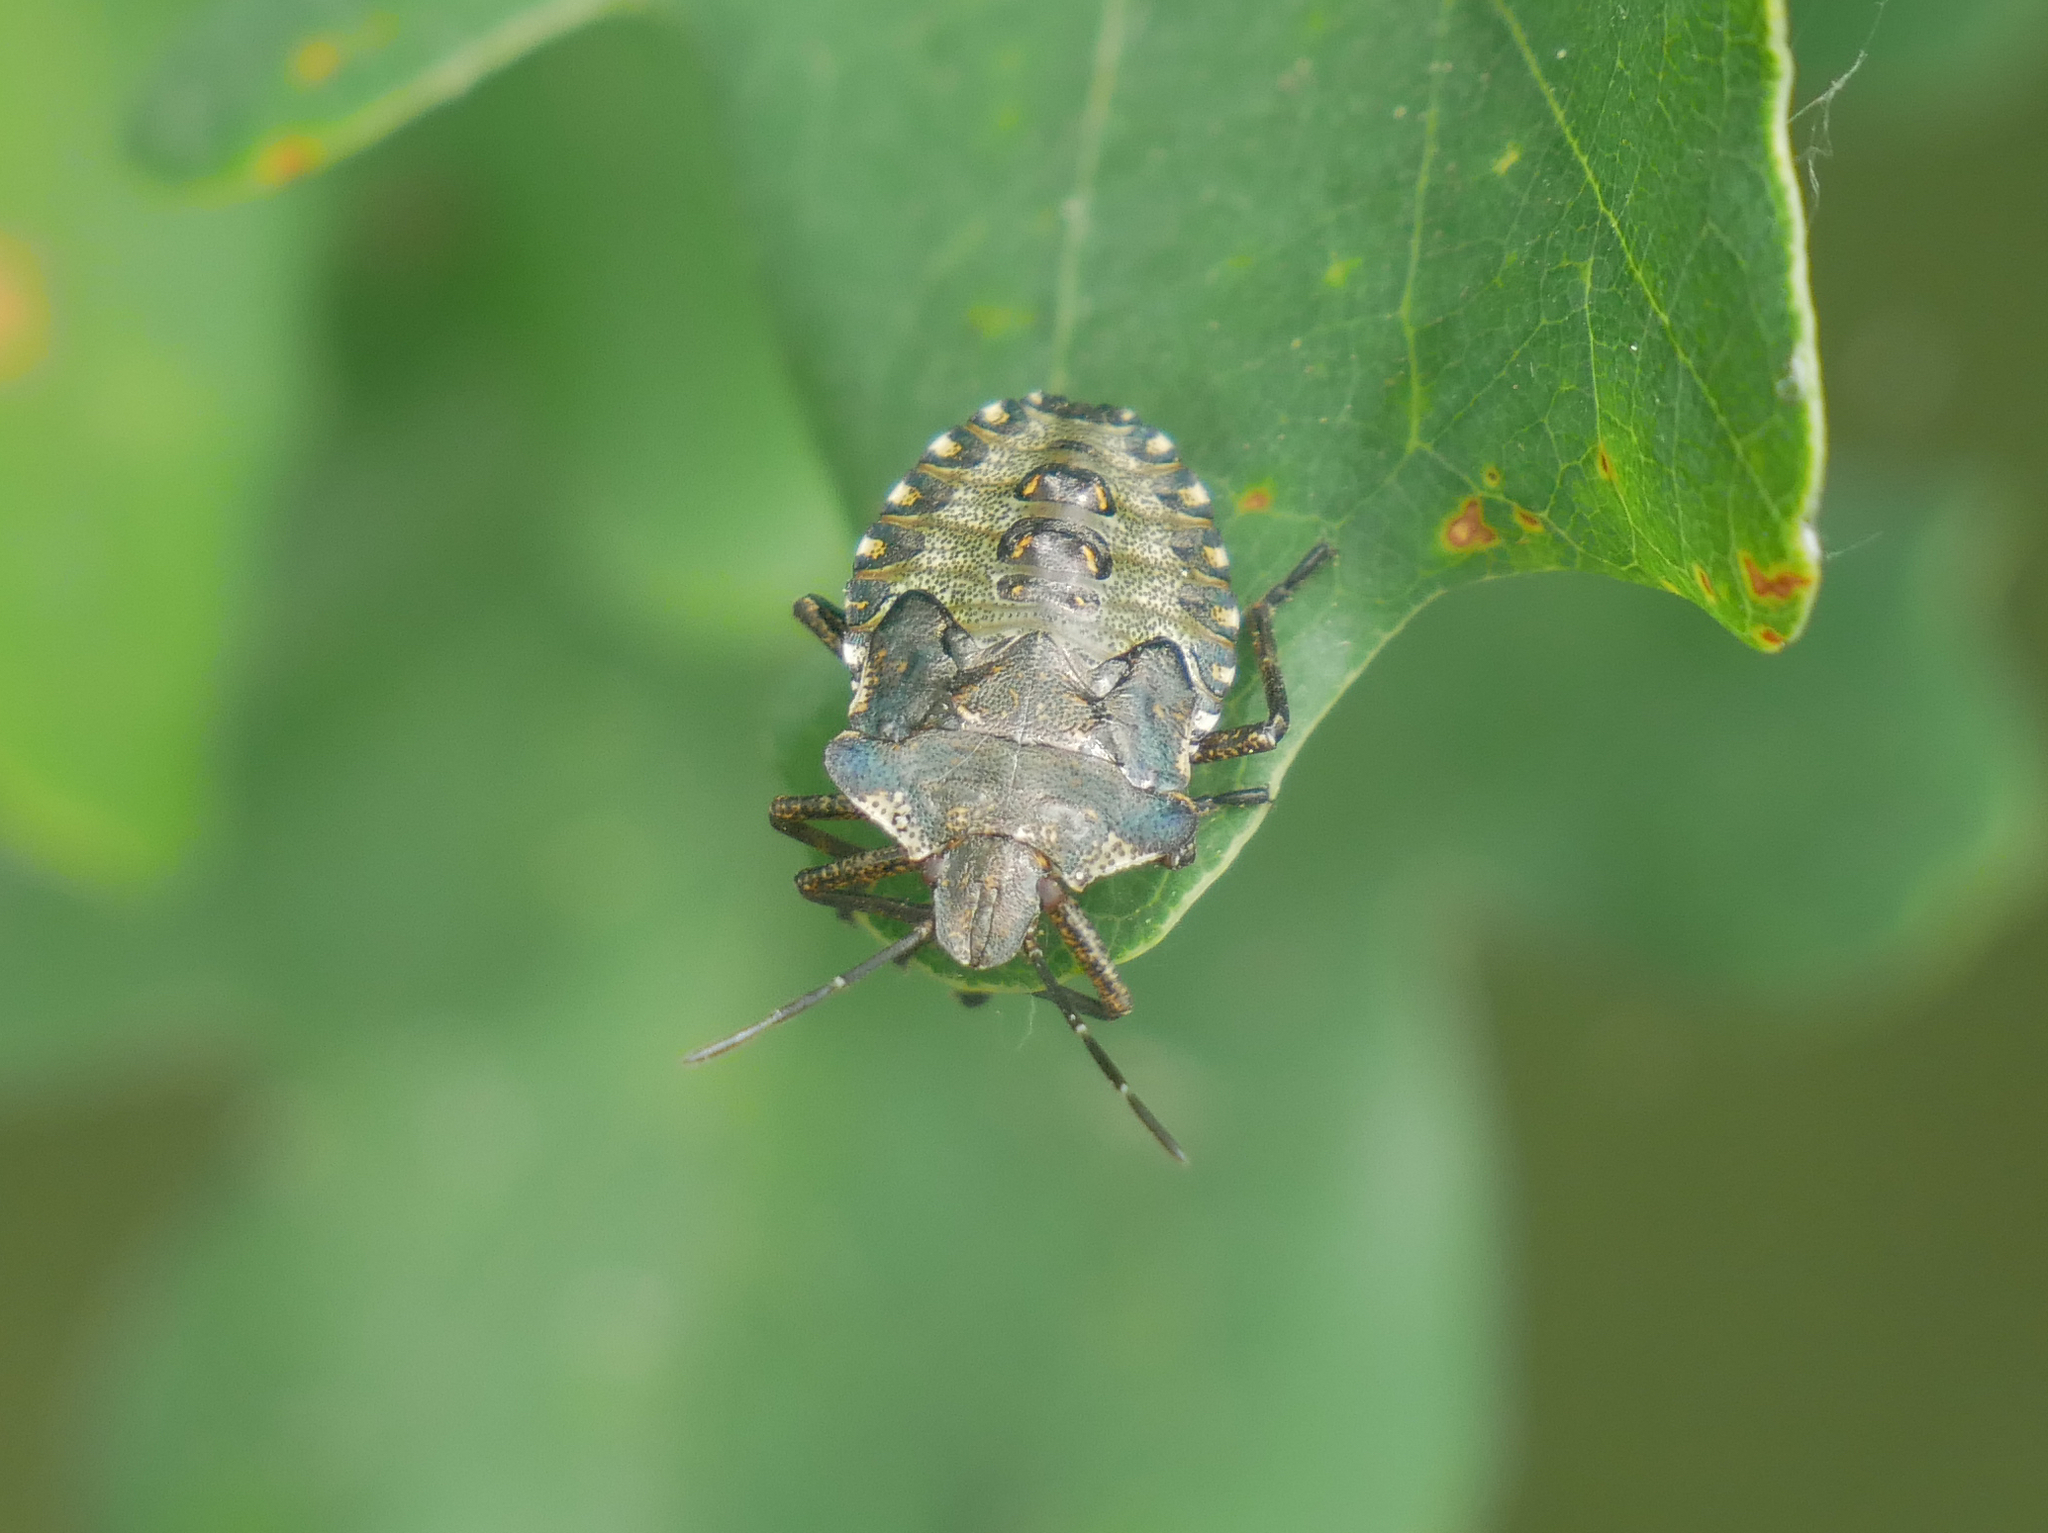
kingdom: Animalia
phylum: Arthropoda
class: Insecta
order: Hemiptera
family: Pentatomidae
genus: Pentatoma
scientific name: Pentatoma rufipes
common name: Forest bug
